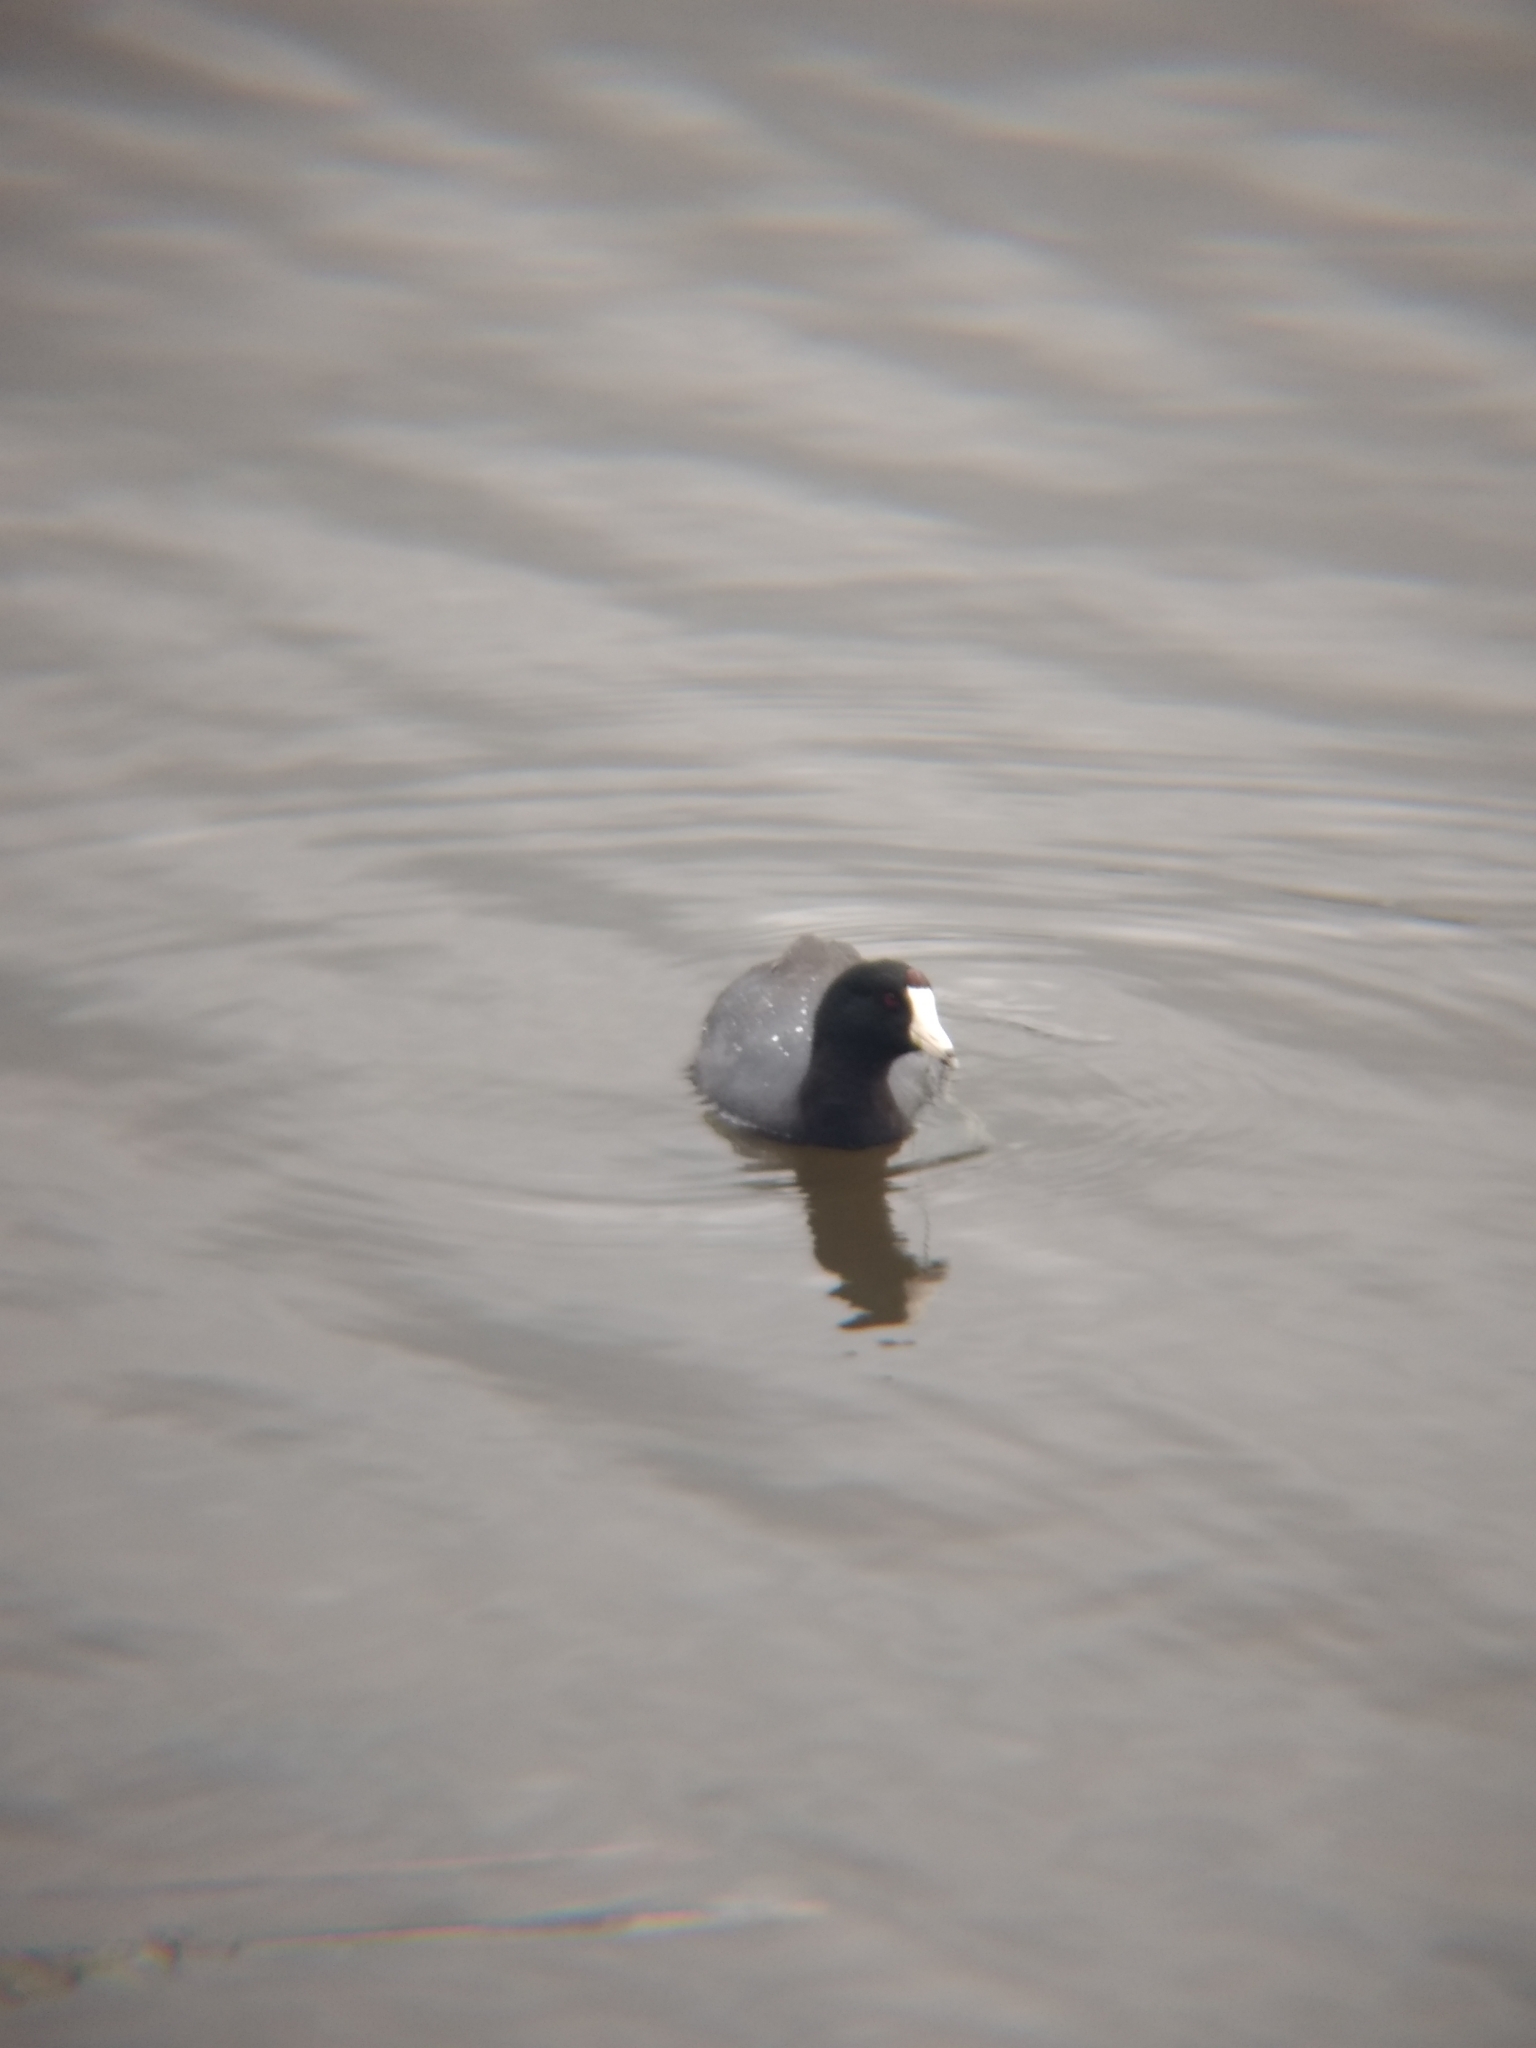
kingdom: Animalia
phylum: Chordata
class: Aves
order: Gruiformes
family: Rallidae
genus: Fulica
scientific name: Fulica americana
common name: American coot
